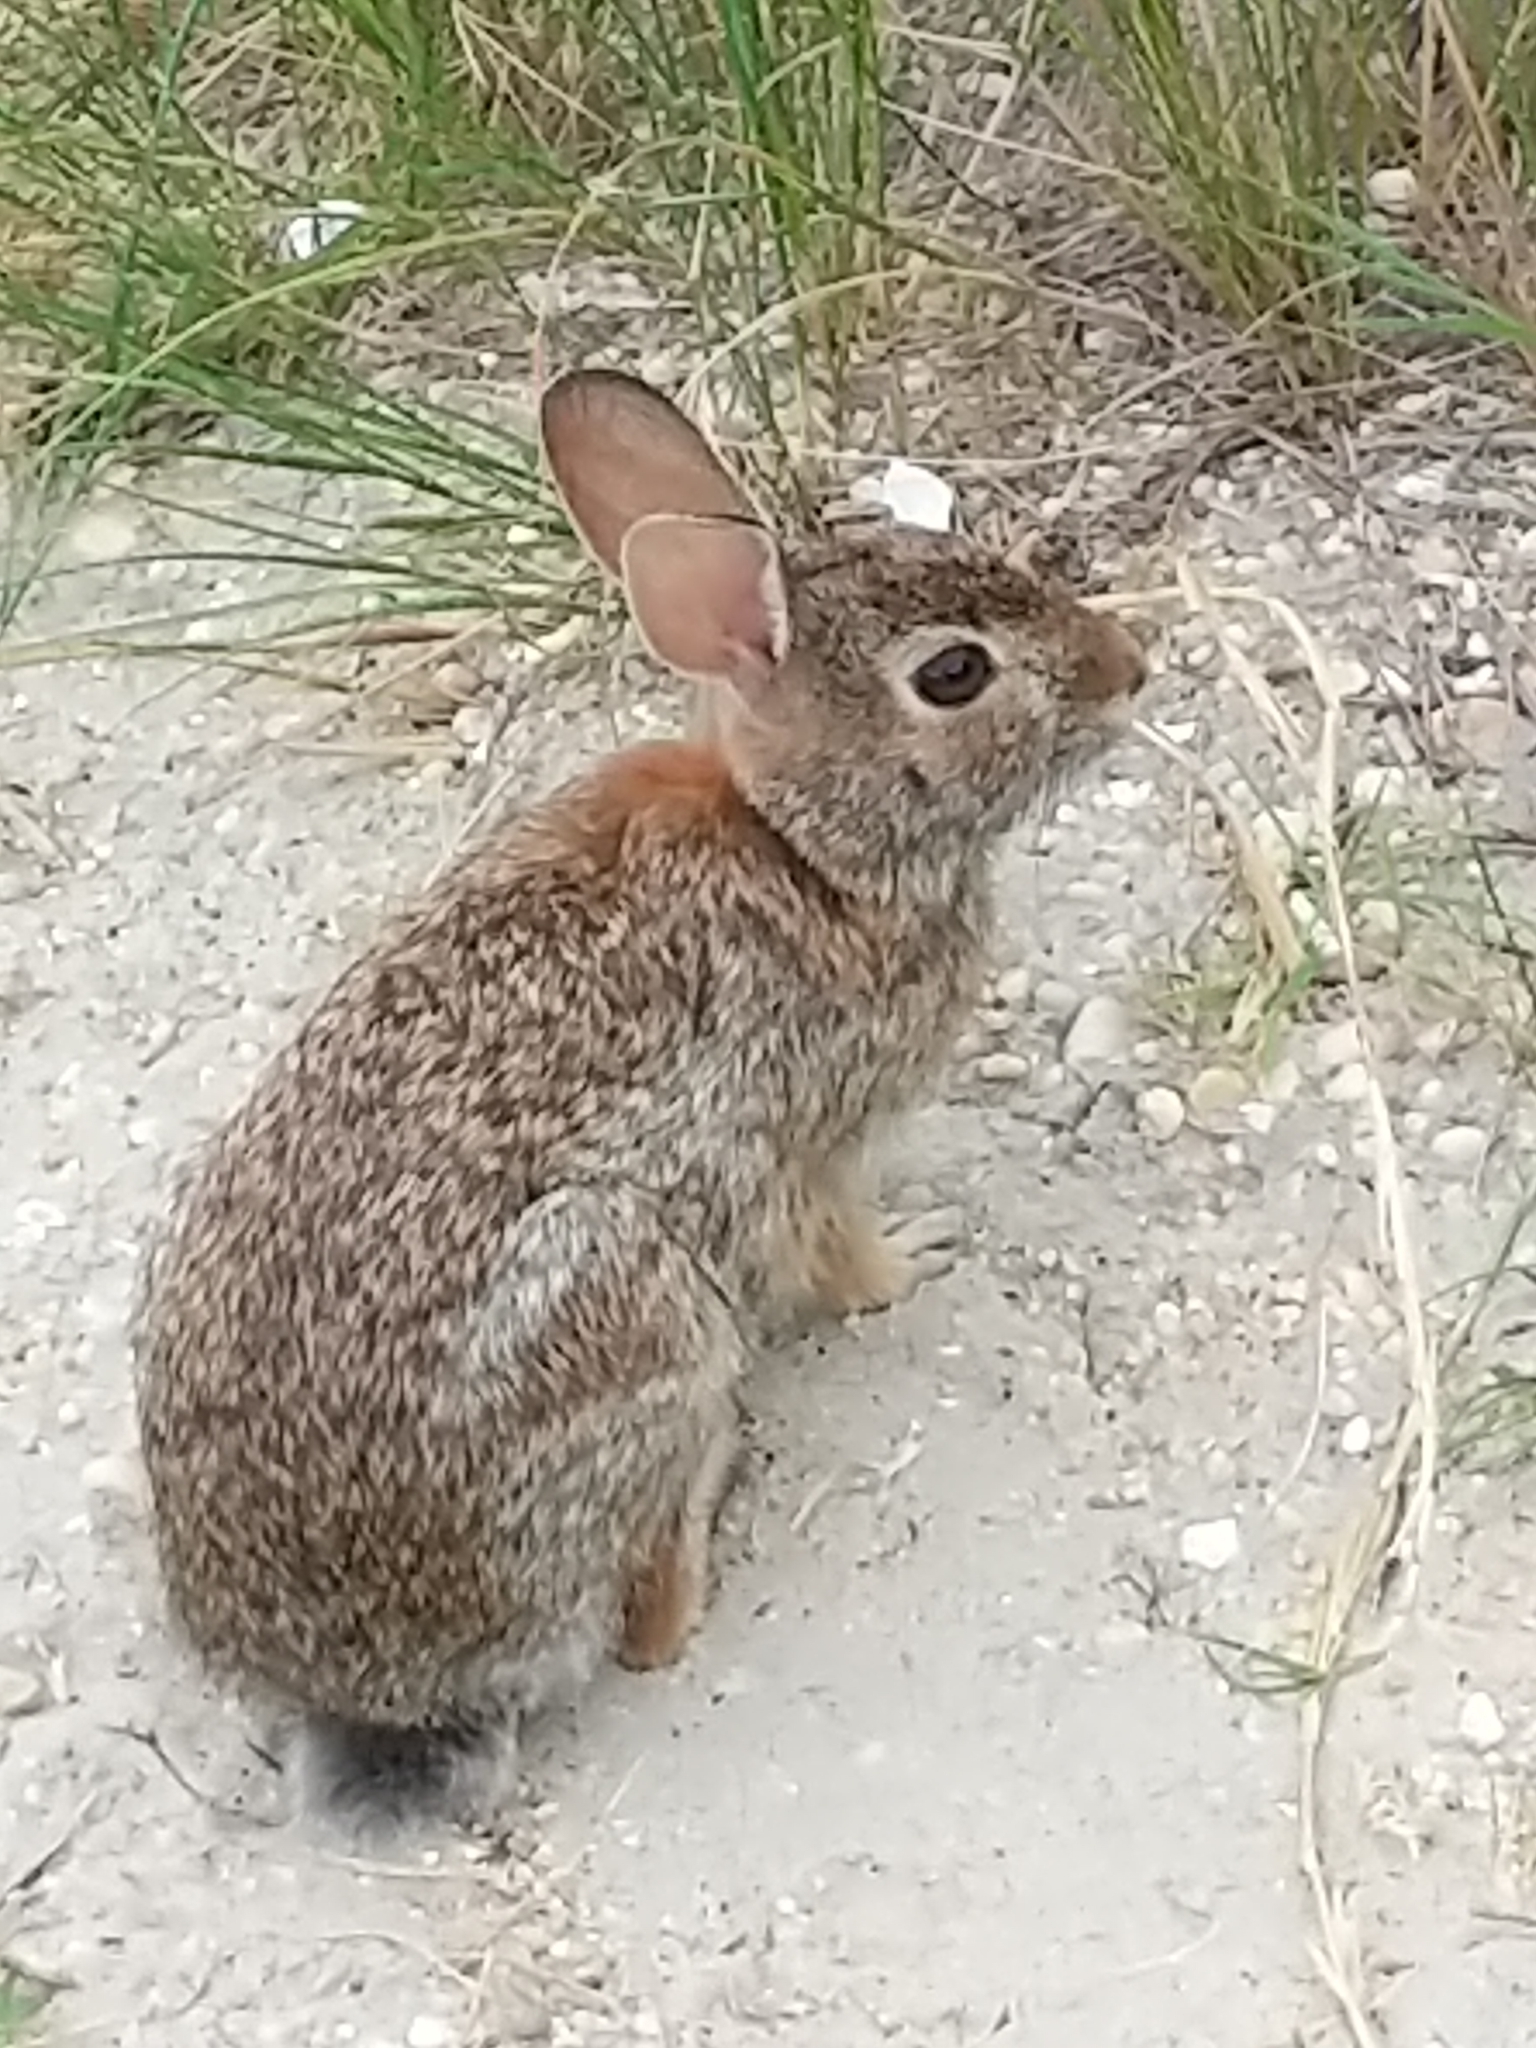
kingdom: Animalia
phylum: Chordata
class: Mammalia
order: Lagomorpha
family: Leporidae
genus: Sylvilagus
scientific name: Sylvilagus floridanus
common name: Eastern cottontail
